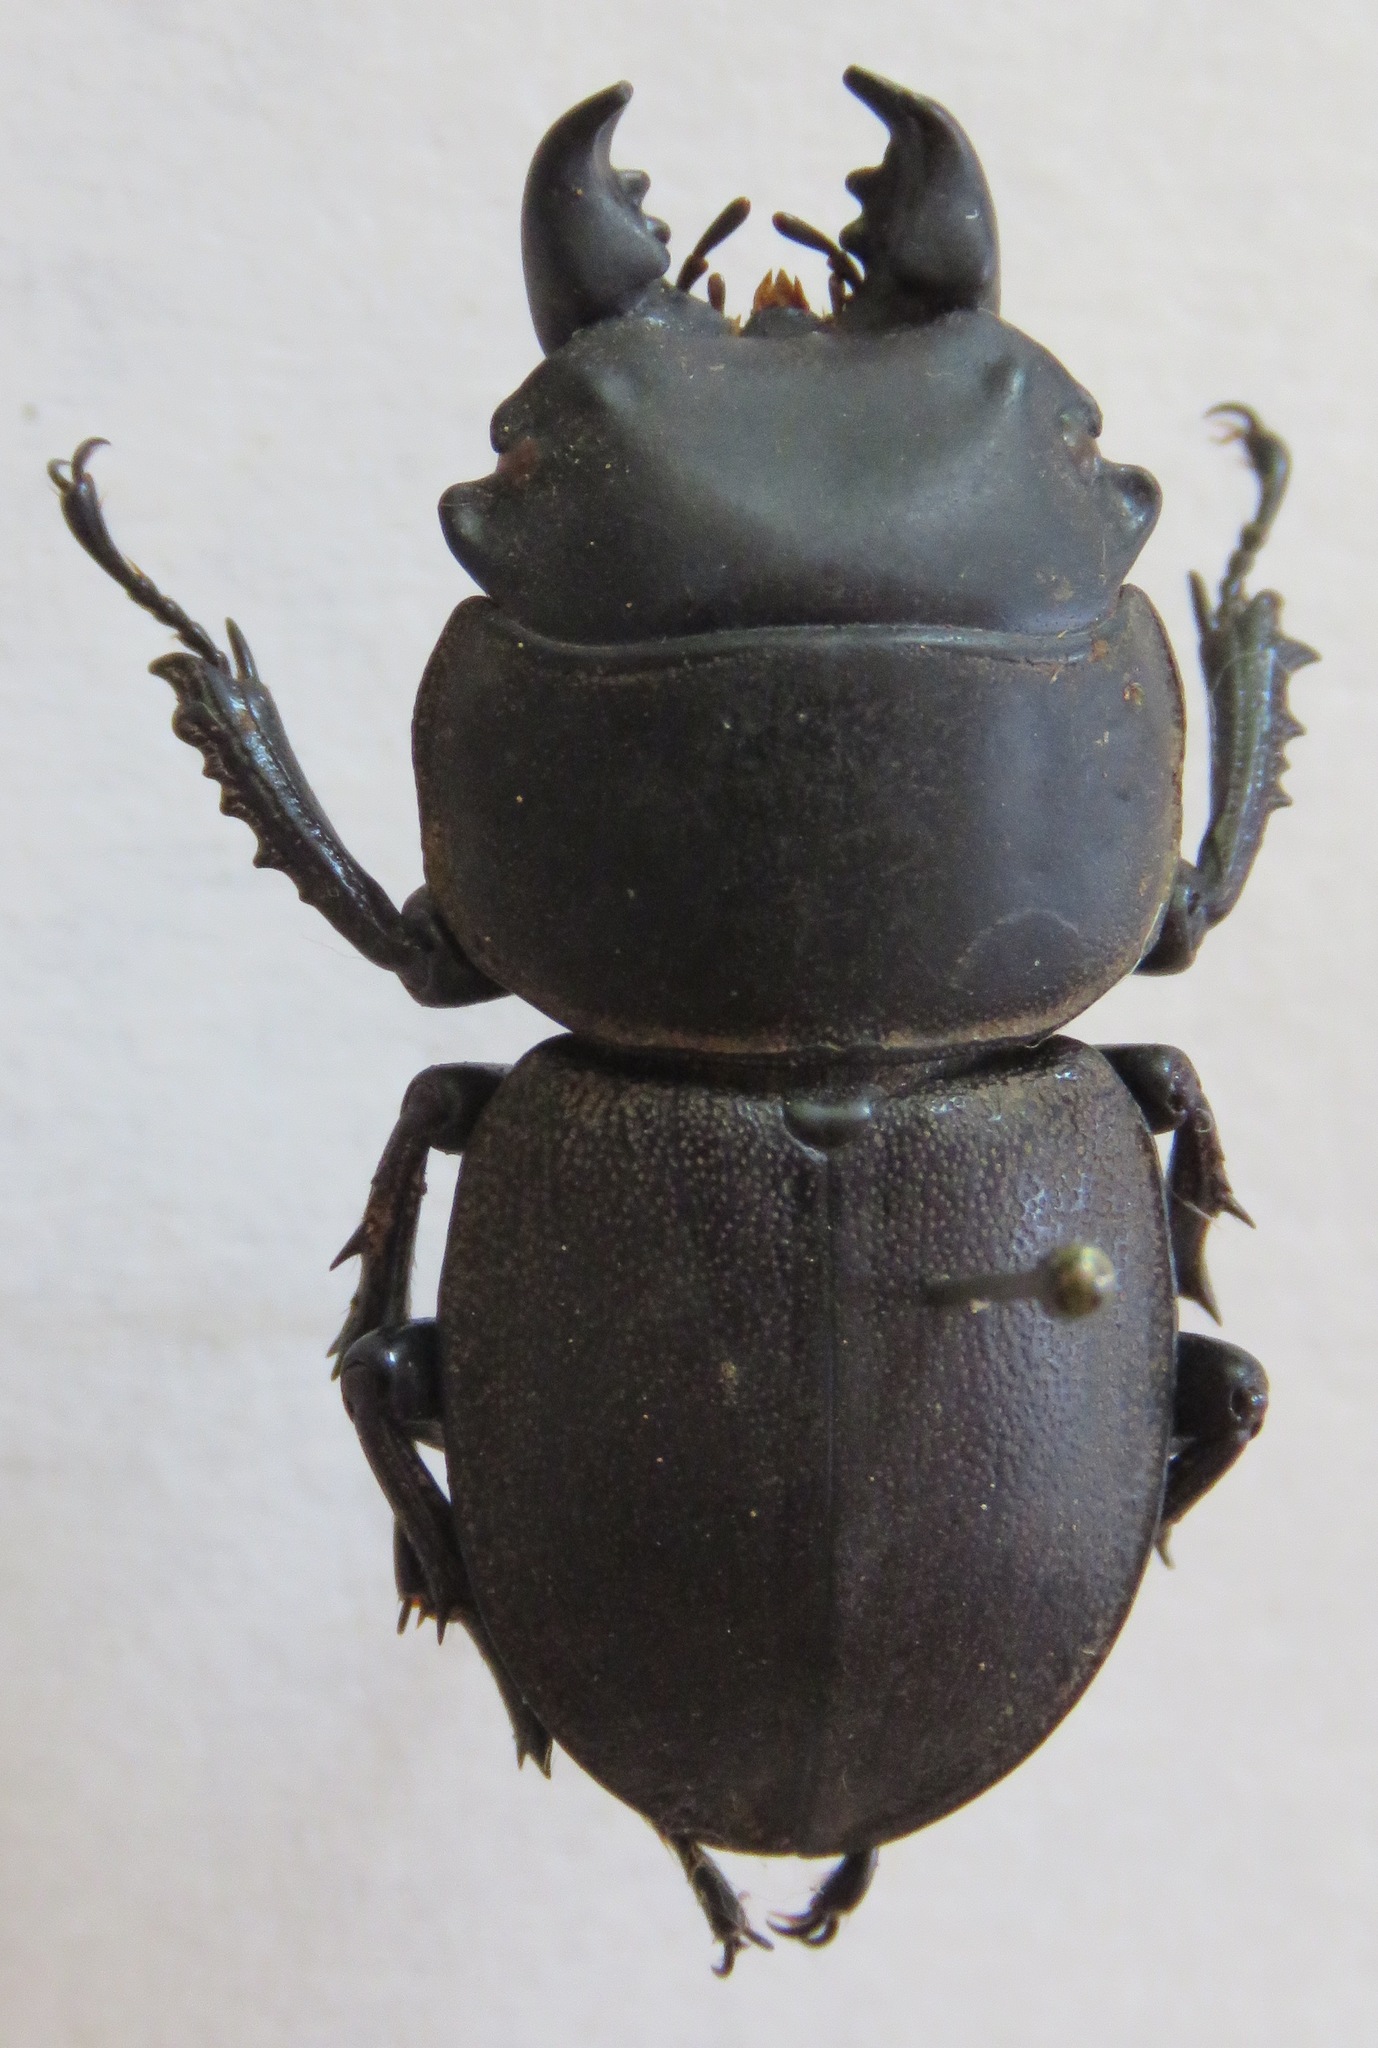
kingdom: Animalia
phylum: Arthropoda
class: Insecta
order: Coleoptera
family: Lucanidae
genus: Apterodorcus
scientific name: Apterodorcus bacchus
